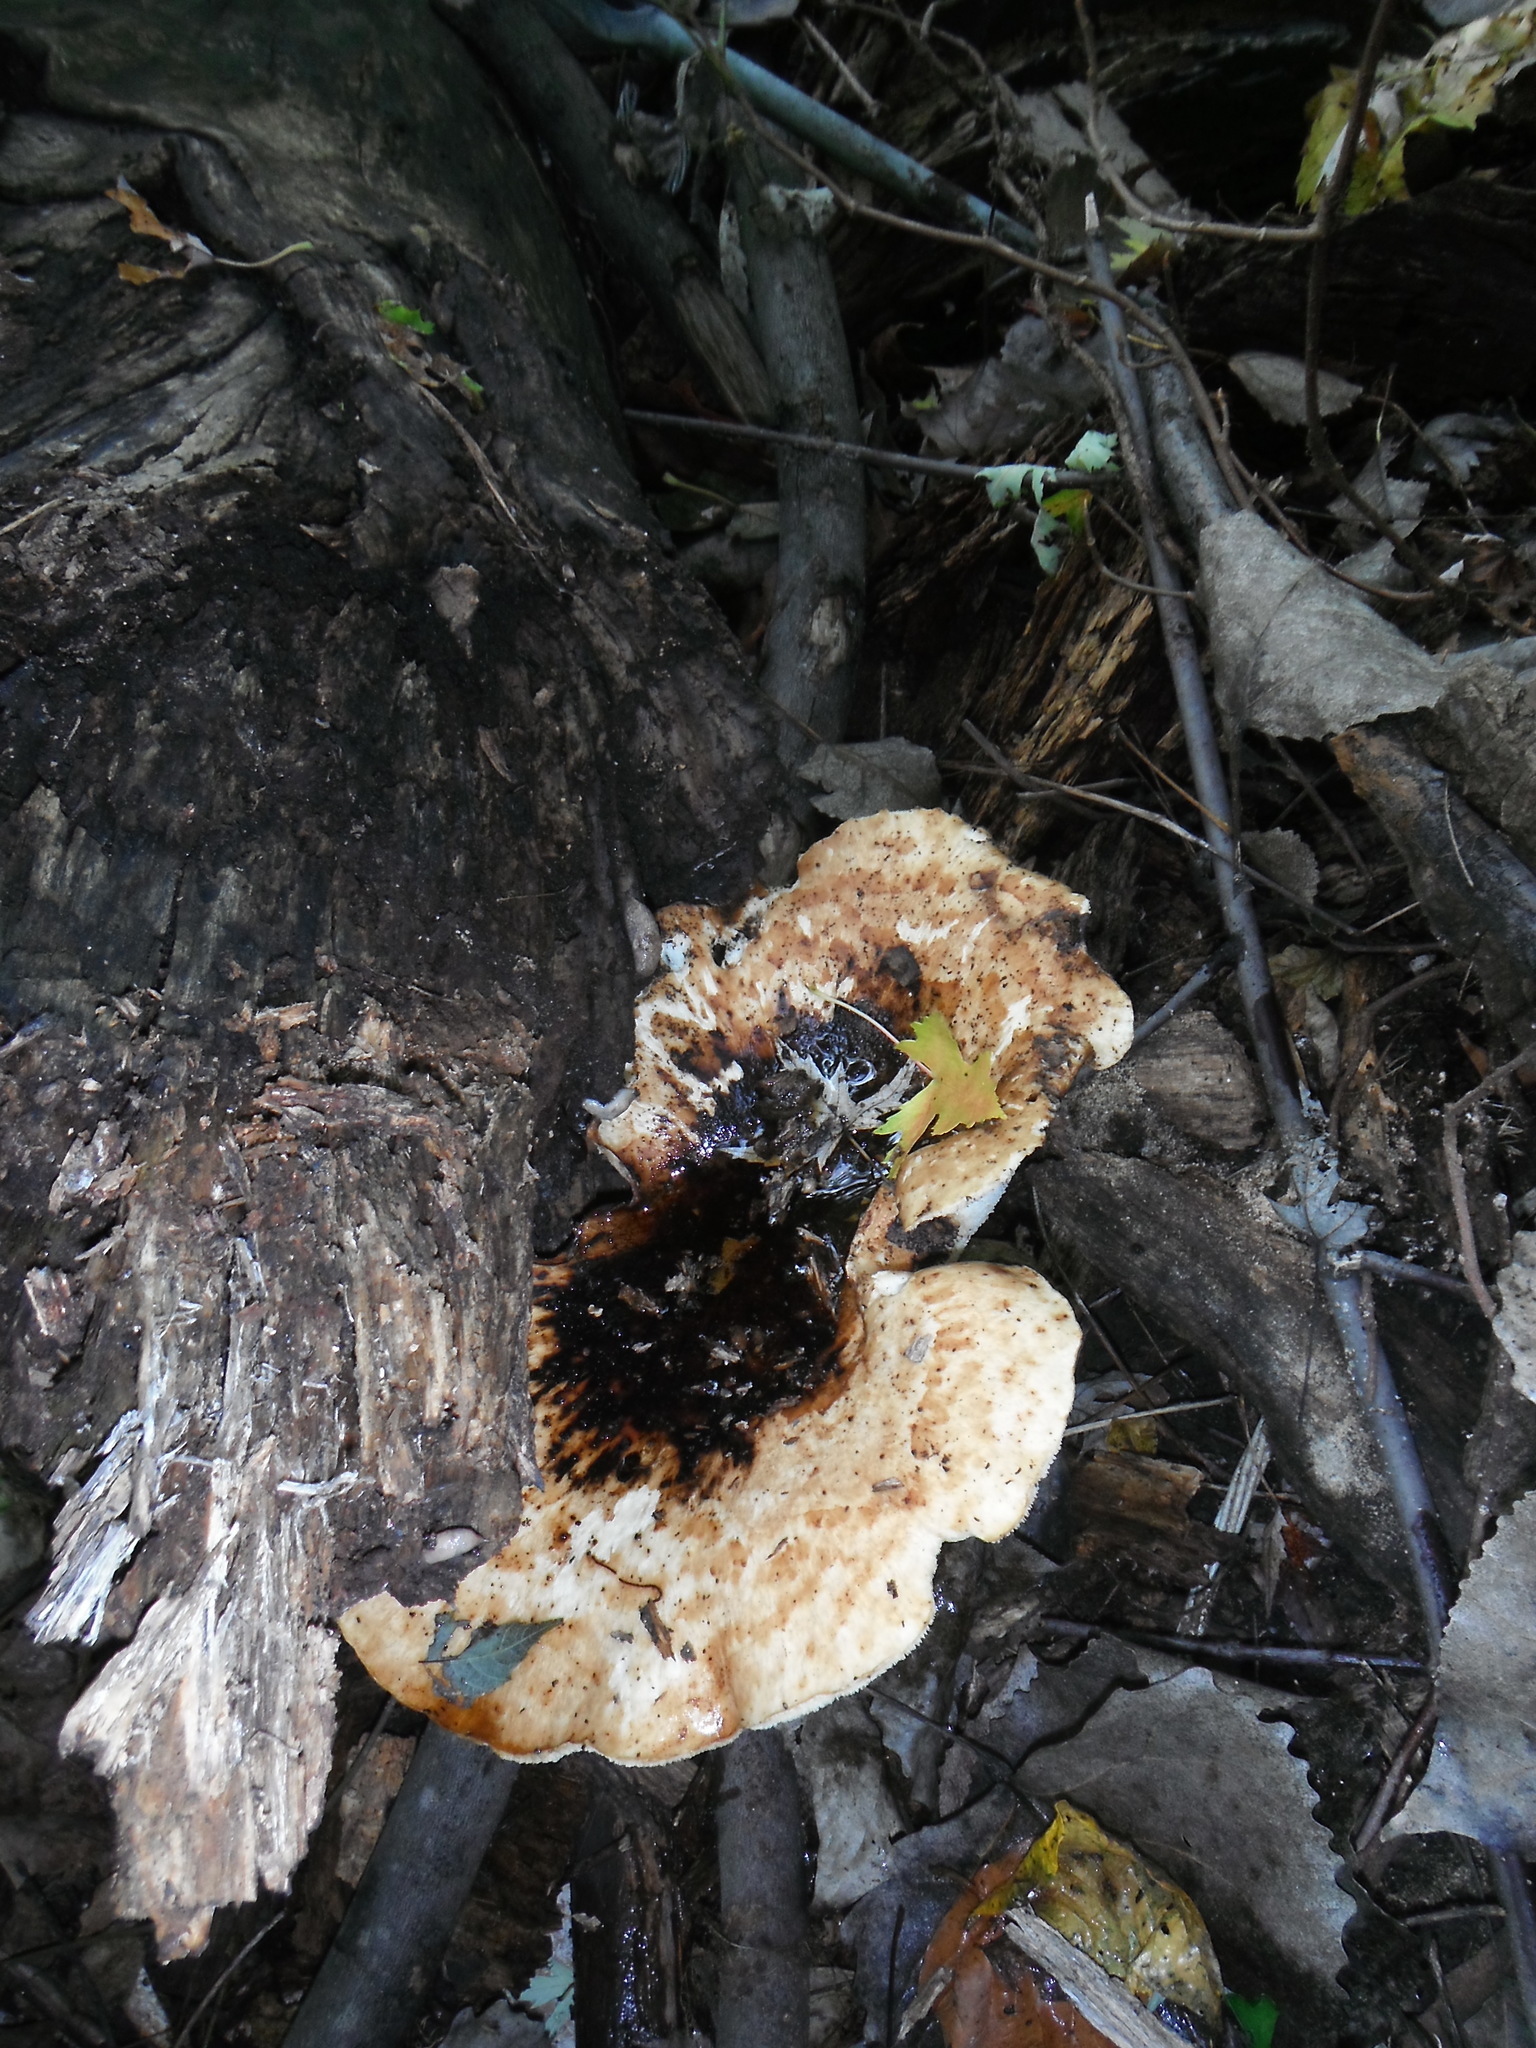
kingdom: Fungi
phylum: Basidiomycota
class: Agaricomycetes
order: Polyporales
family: Polyporaceae
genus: Cerioporus
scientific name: Cerioporus squamosus
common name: Dryad's saddle
